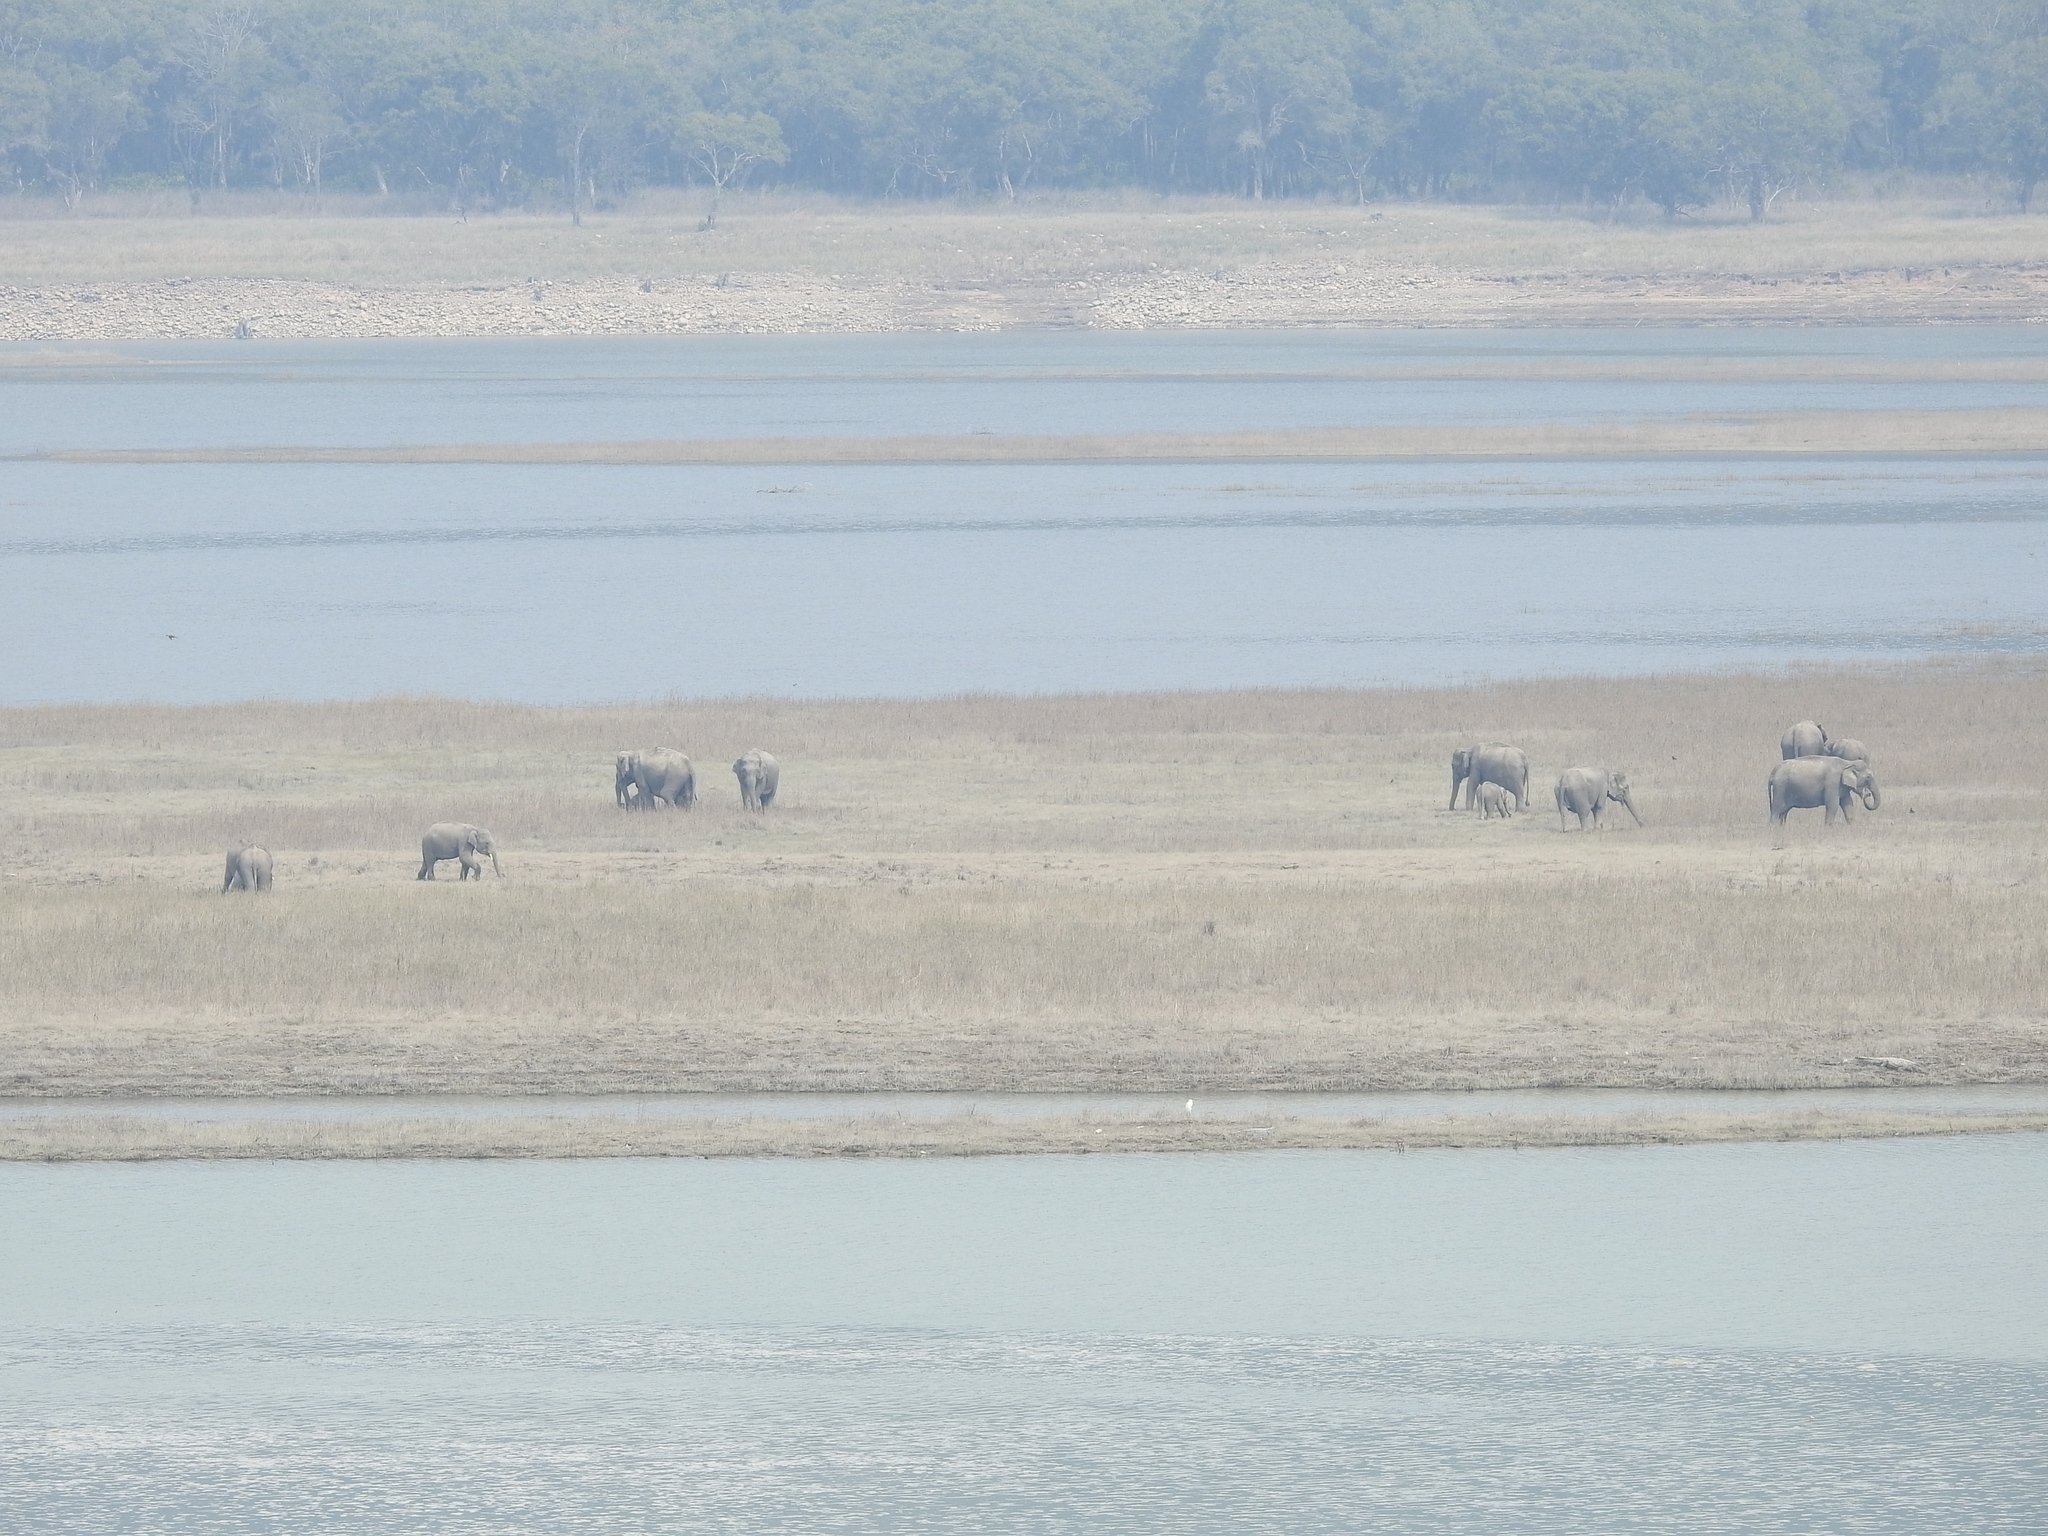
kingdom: Animalia
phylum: Chordata
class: Mammalia
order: Proboscidea
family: Elephantidae
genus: Elephas
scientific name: Elephas maximus
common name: Asian elephant
